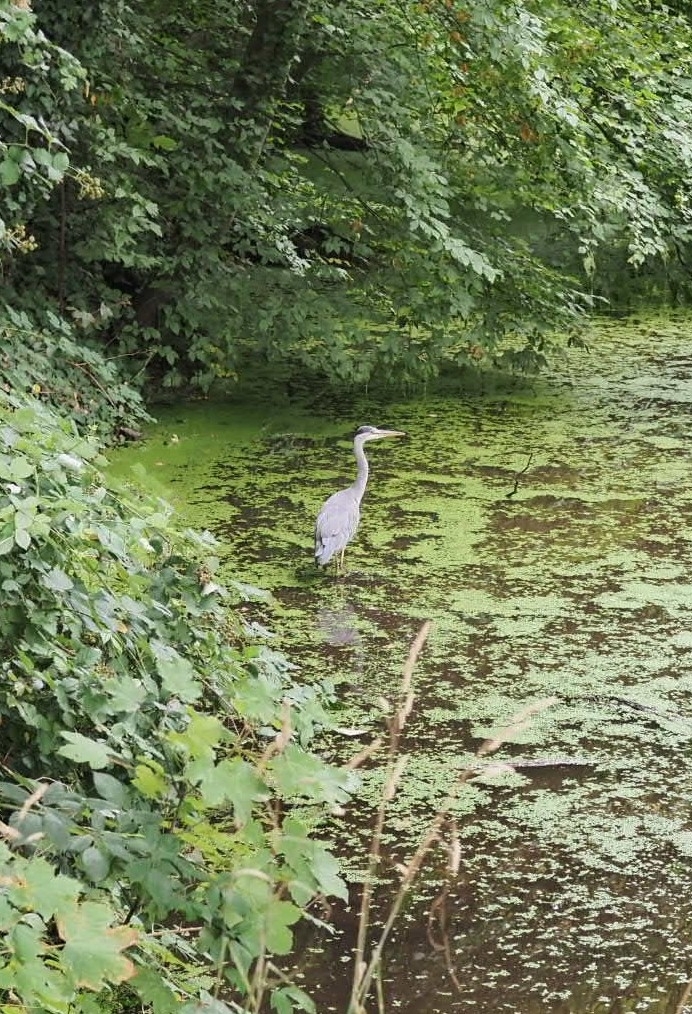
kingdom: Animalia
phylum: Chordata
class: Aves
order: Pelecaniformes
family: Ardeidae
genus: Ardea
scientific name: Ardea cinerea
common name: Grey heron
